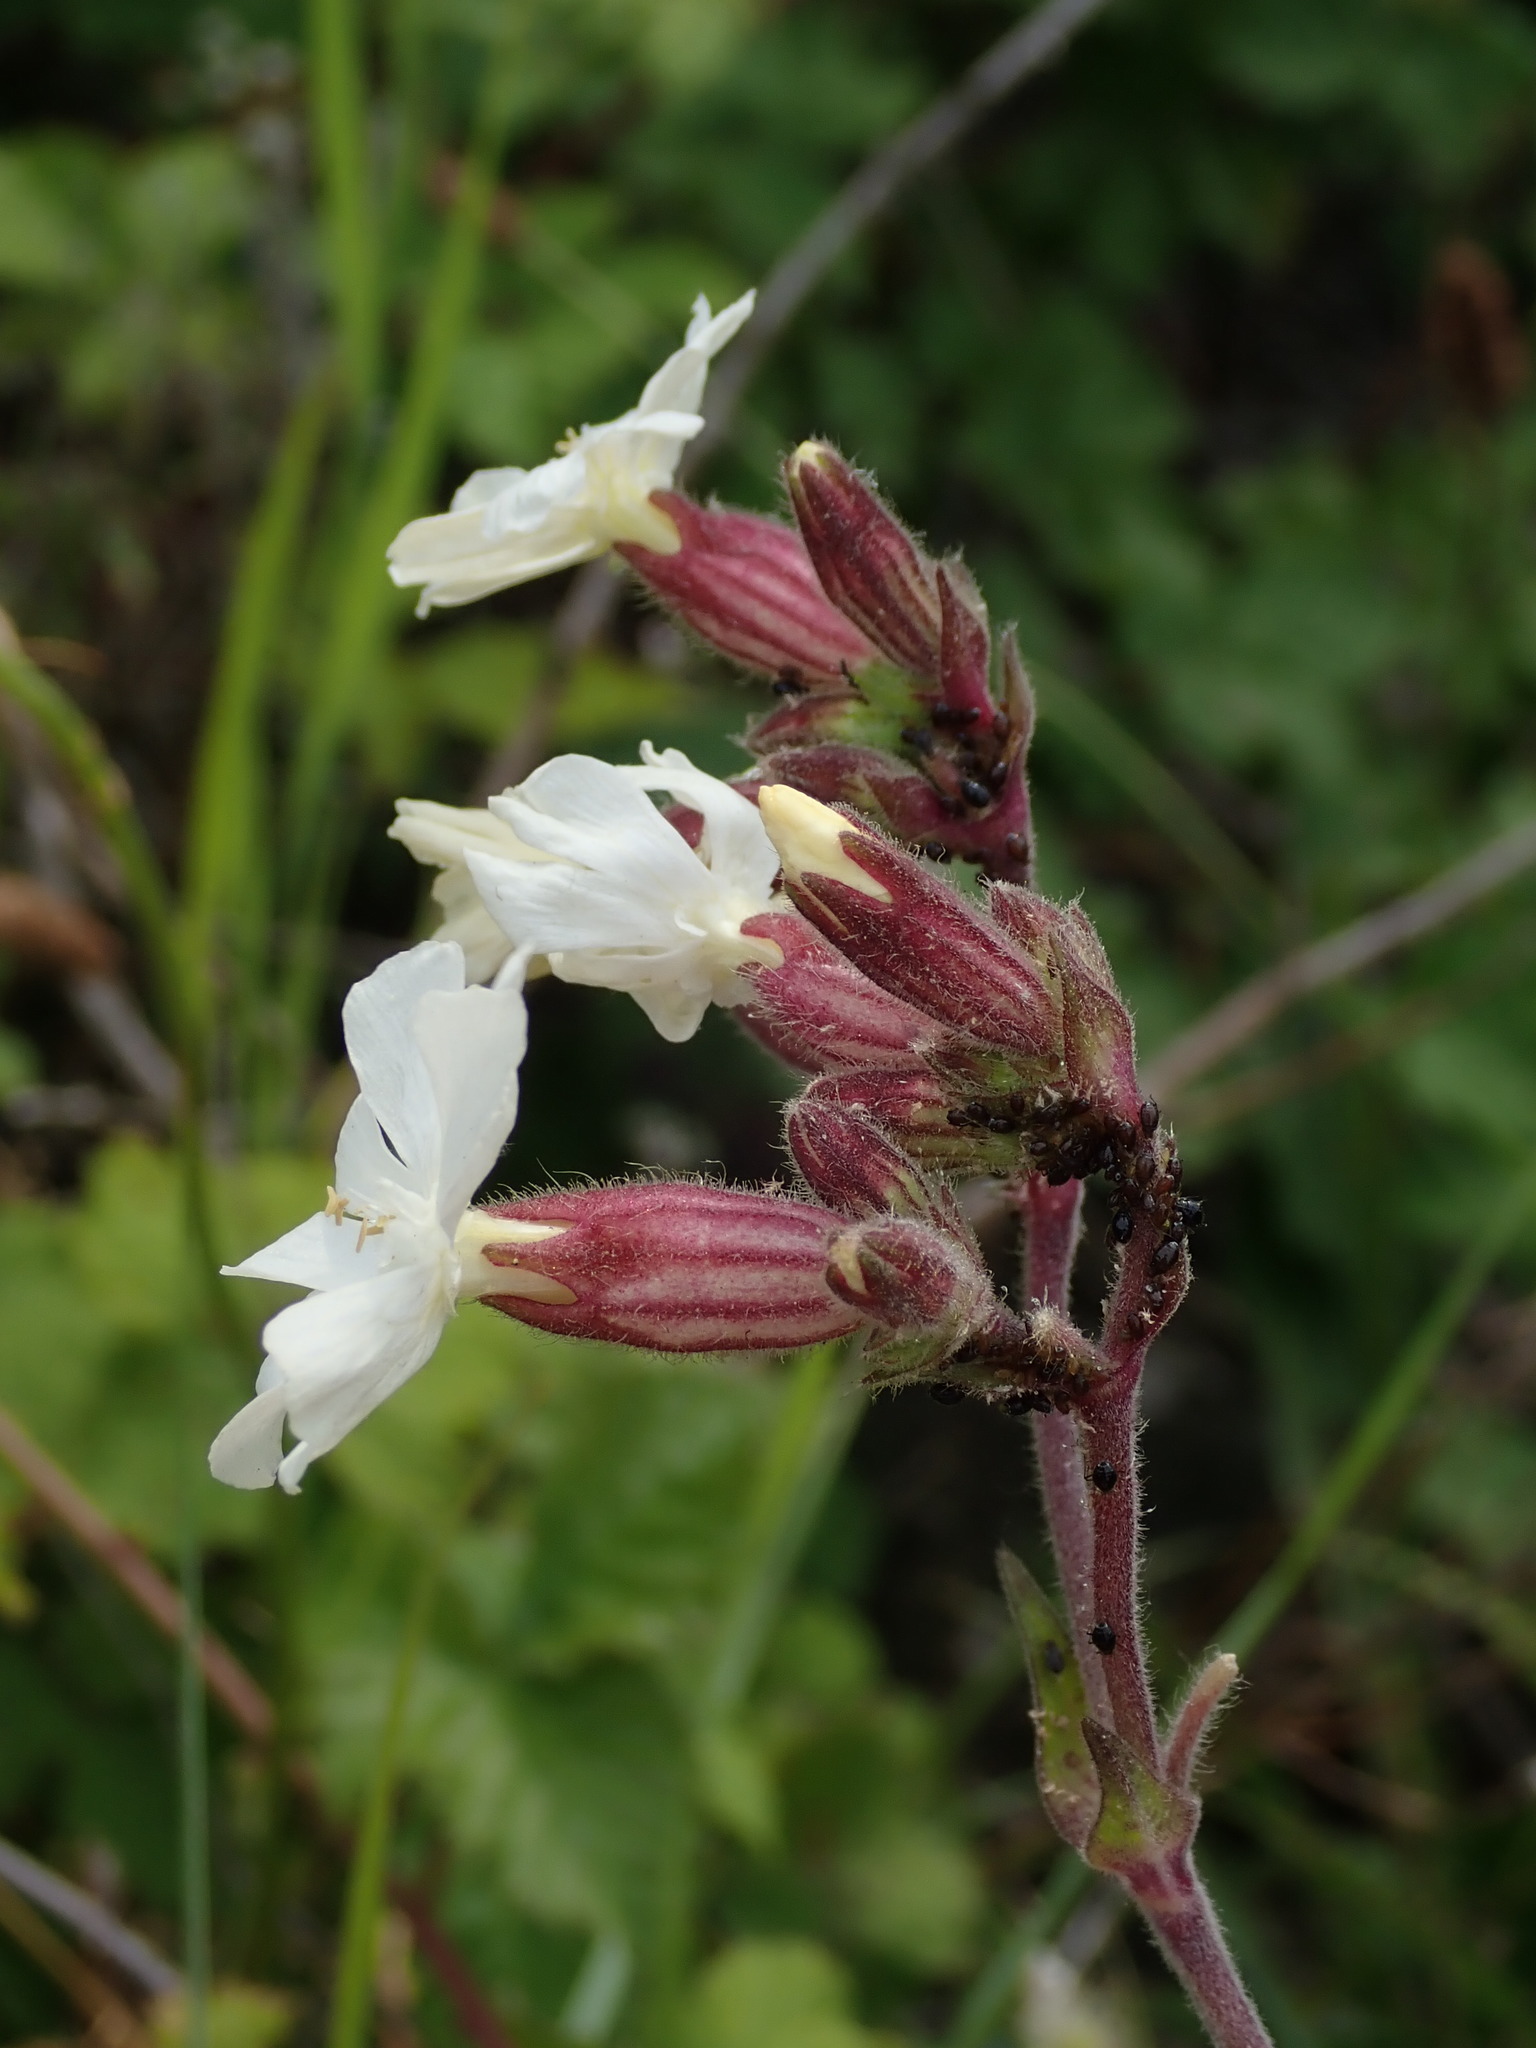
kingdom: Plantae
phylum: Tracheophyta
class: Magnoliopsida
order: Caryophyllales
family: Caryophyllaceae
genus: Silene
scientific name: Silene latifolia
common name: White campion
